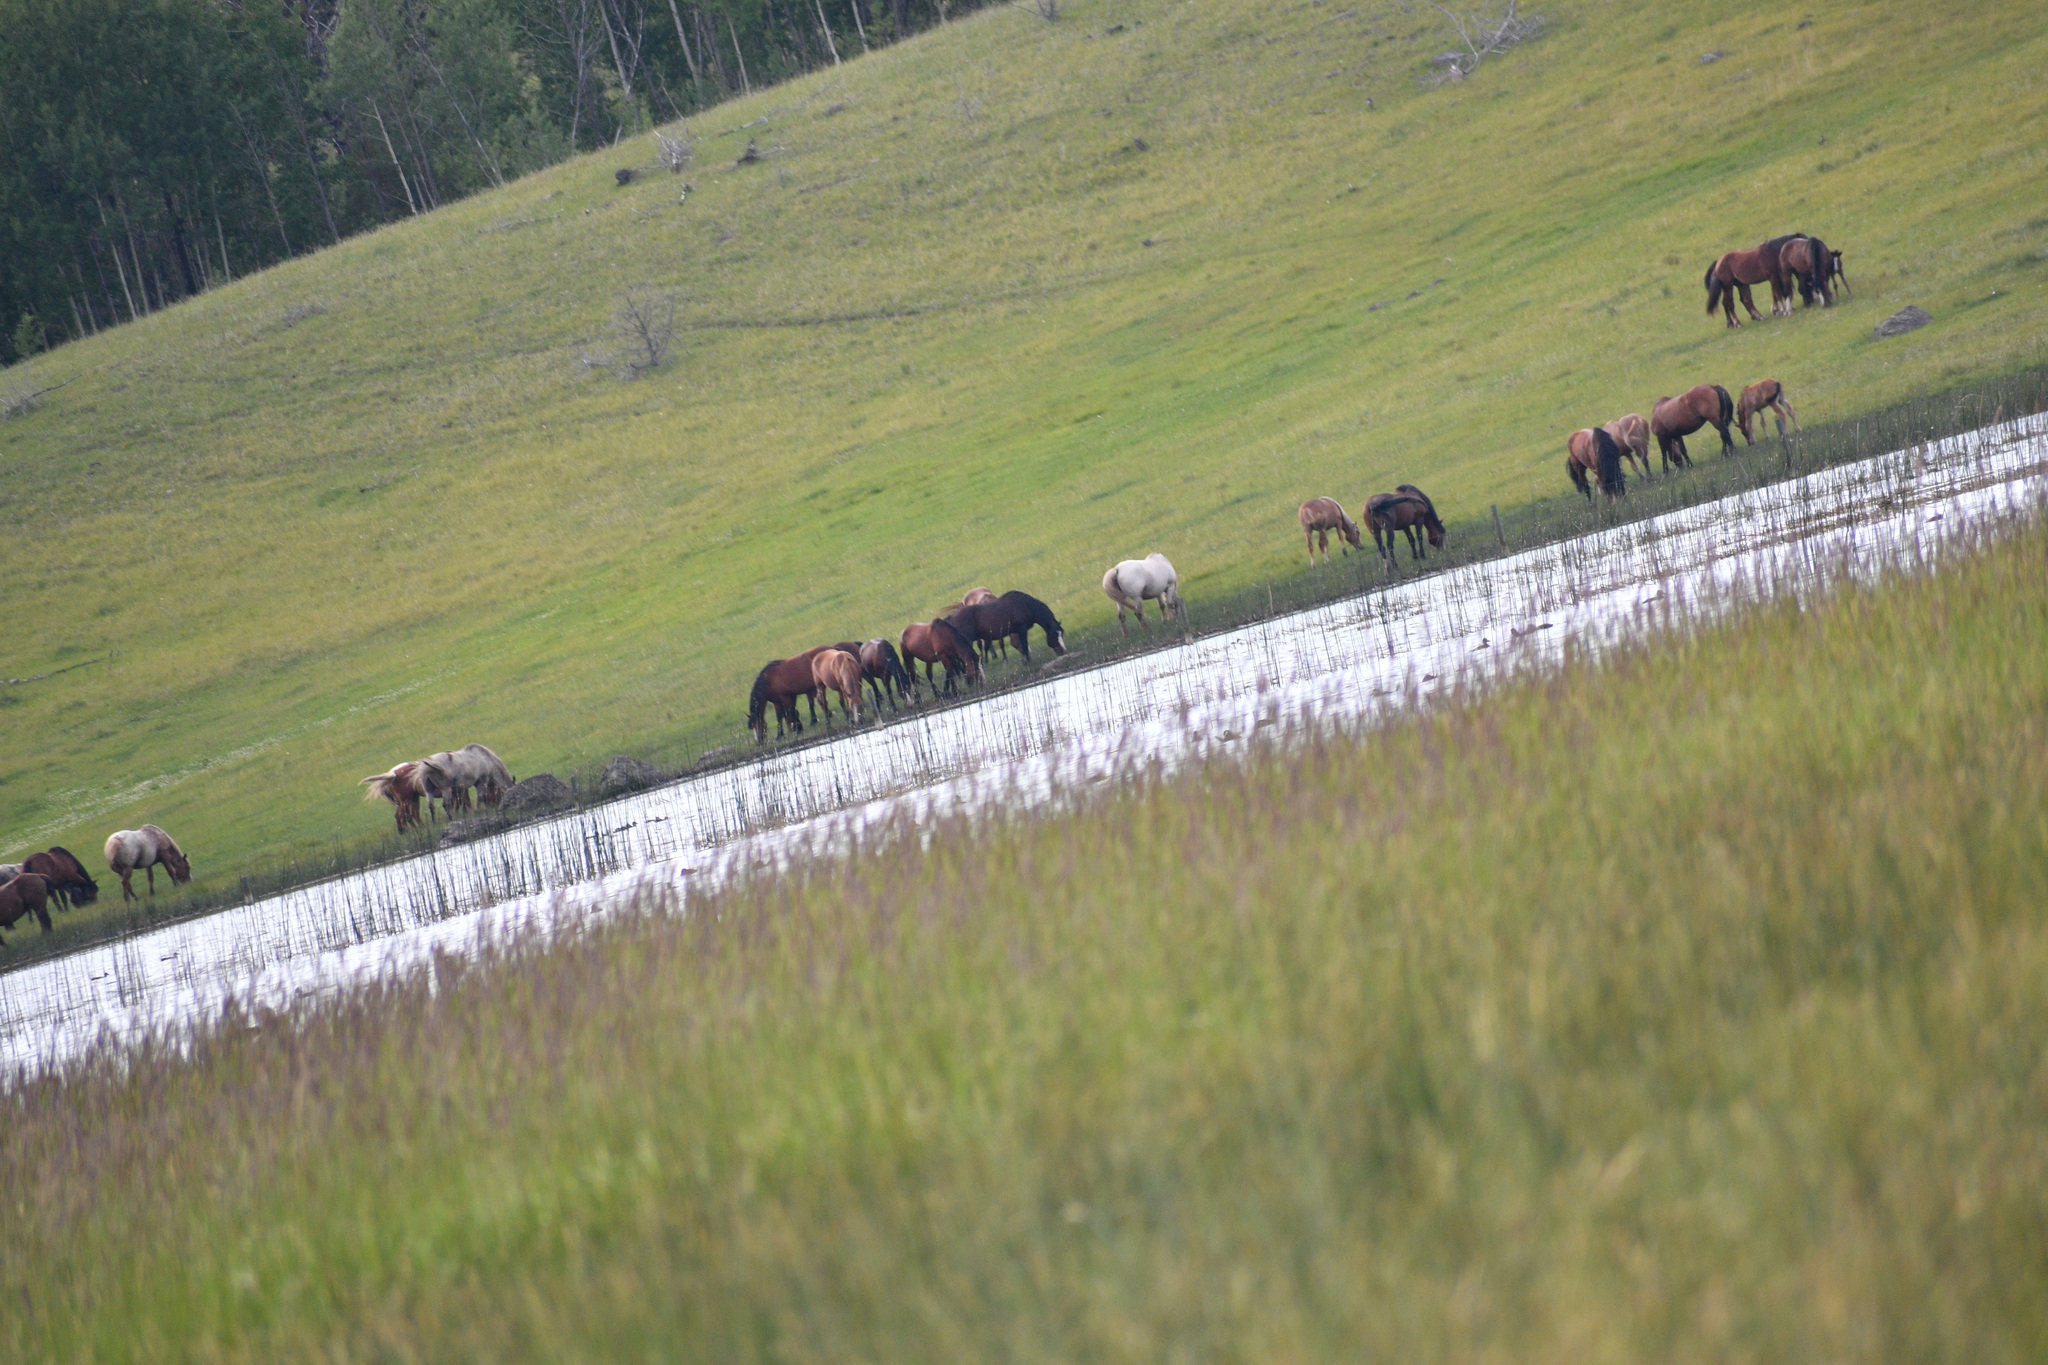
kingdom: Animalia
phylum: Chordata
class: Mammalia
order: Perissodactyla
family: Equidae
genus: Equus
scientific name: Equus caballus
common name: Horse
